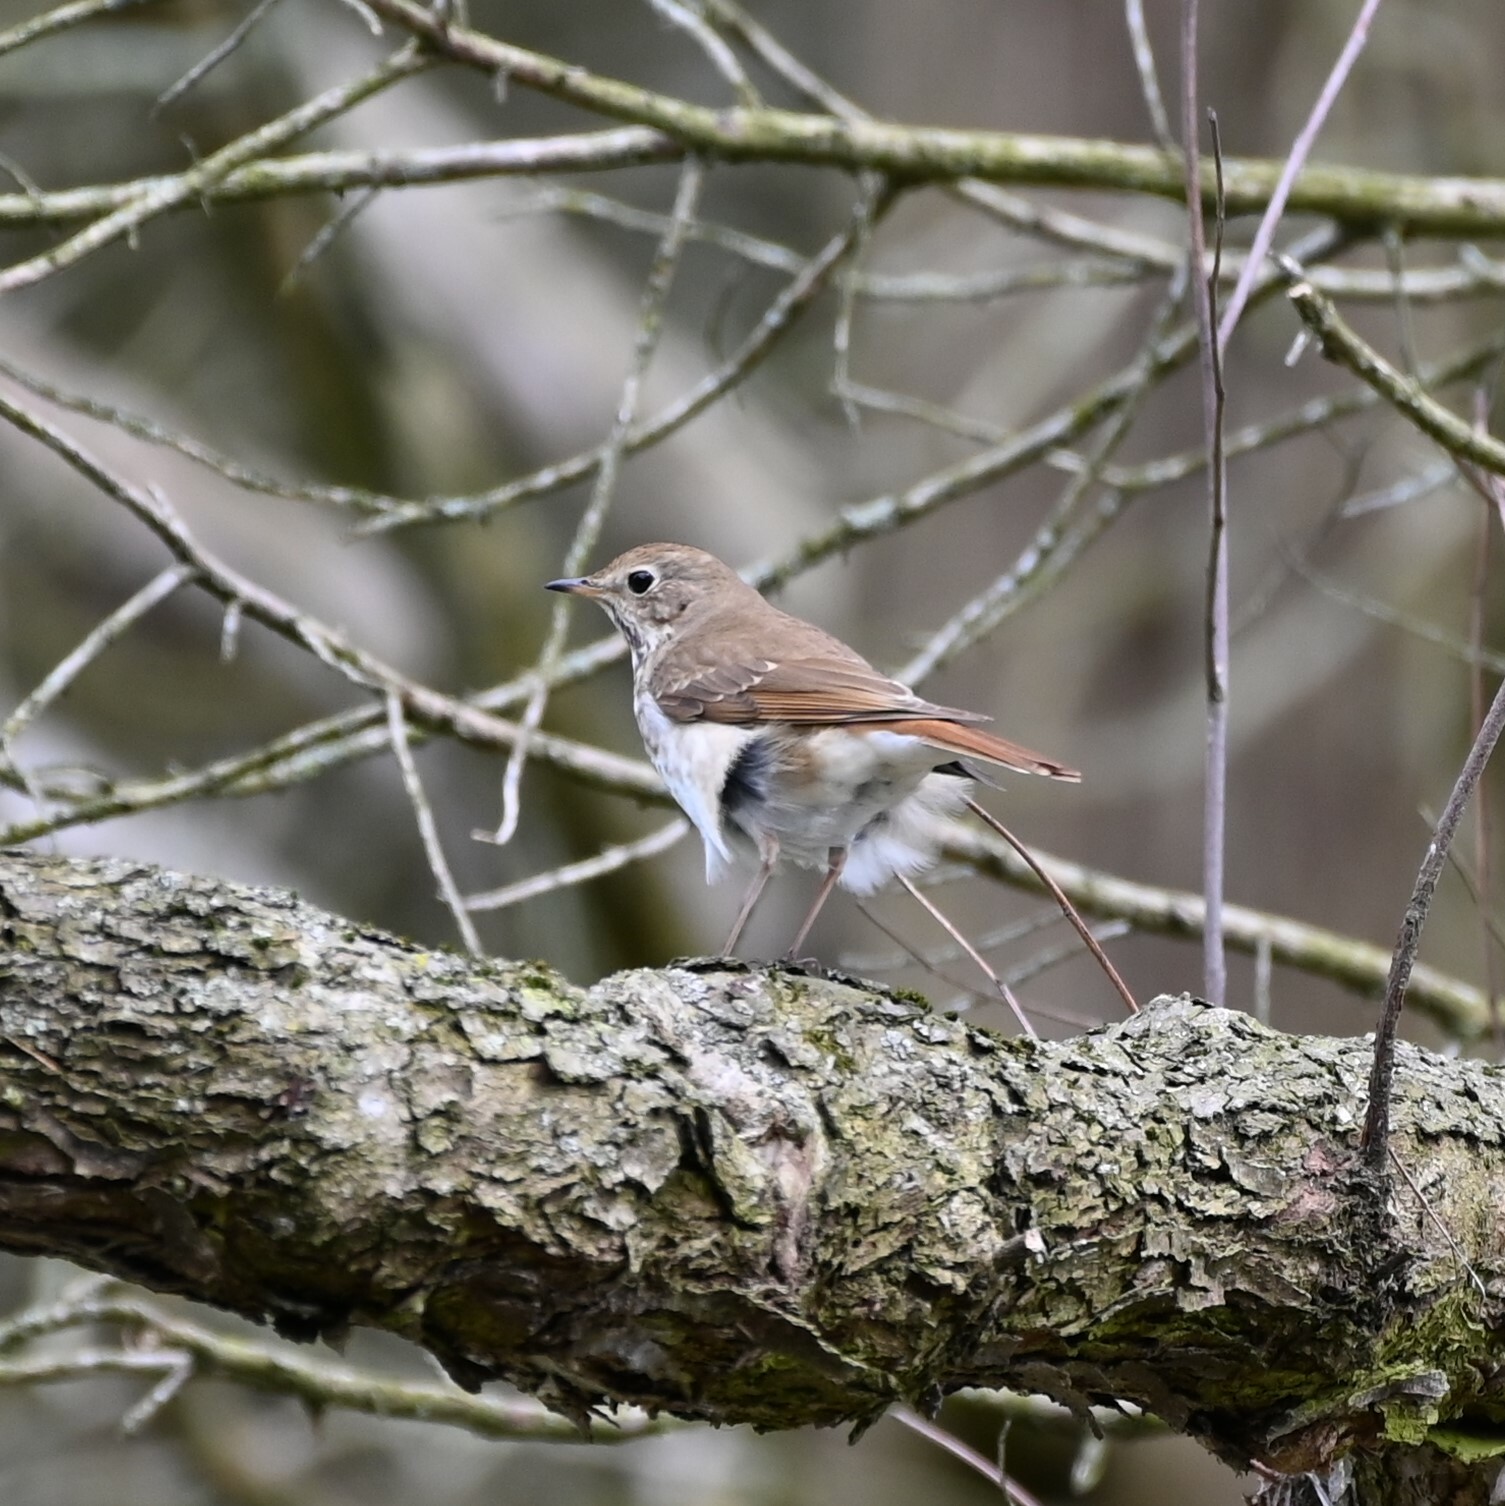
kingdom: Animalia
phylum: Chordata
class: Aves
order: Passeriformes
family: Turdidae
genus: Catharus
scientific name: Catharus guttatus
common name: Hermit thrush
